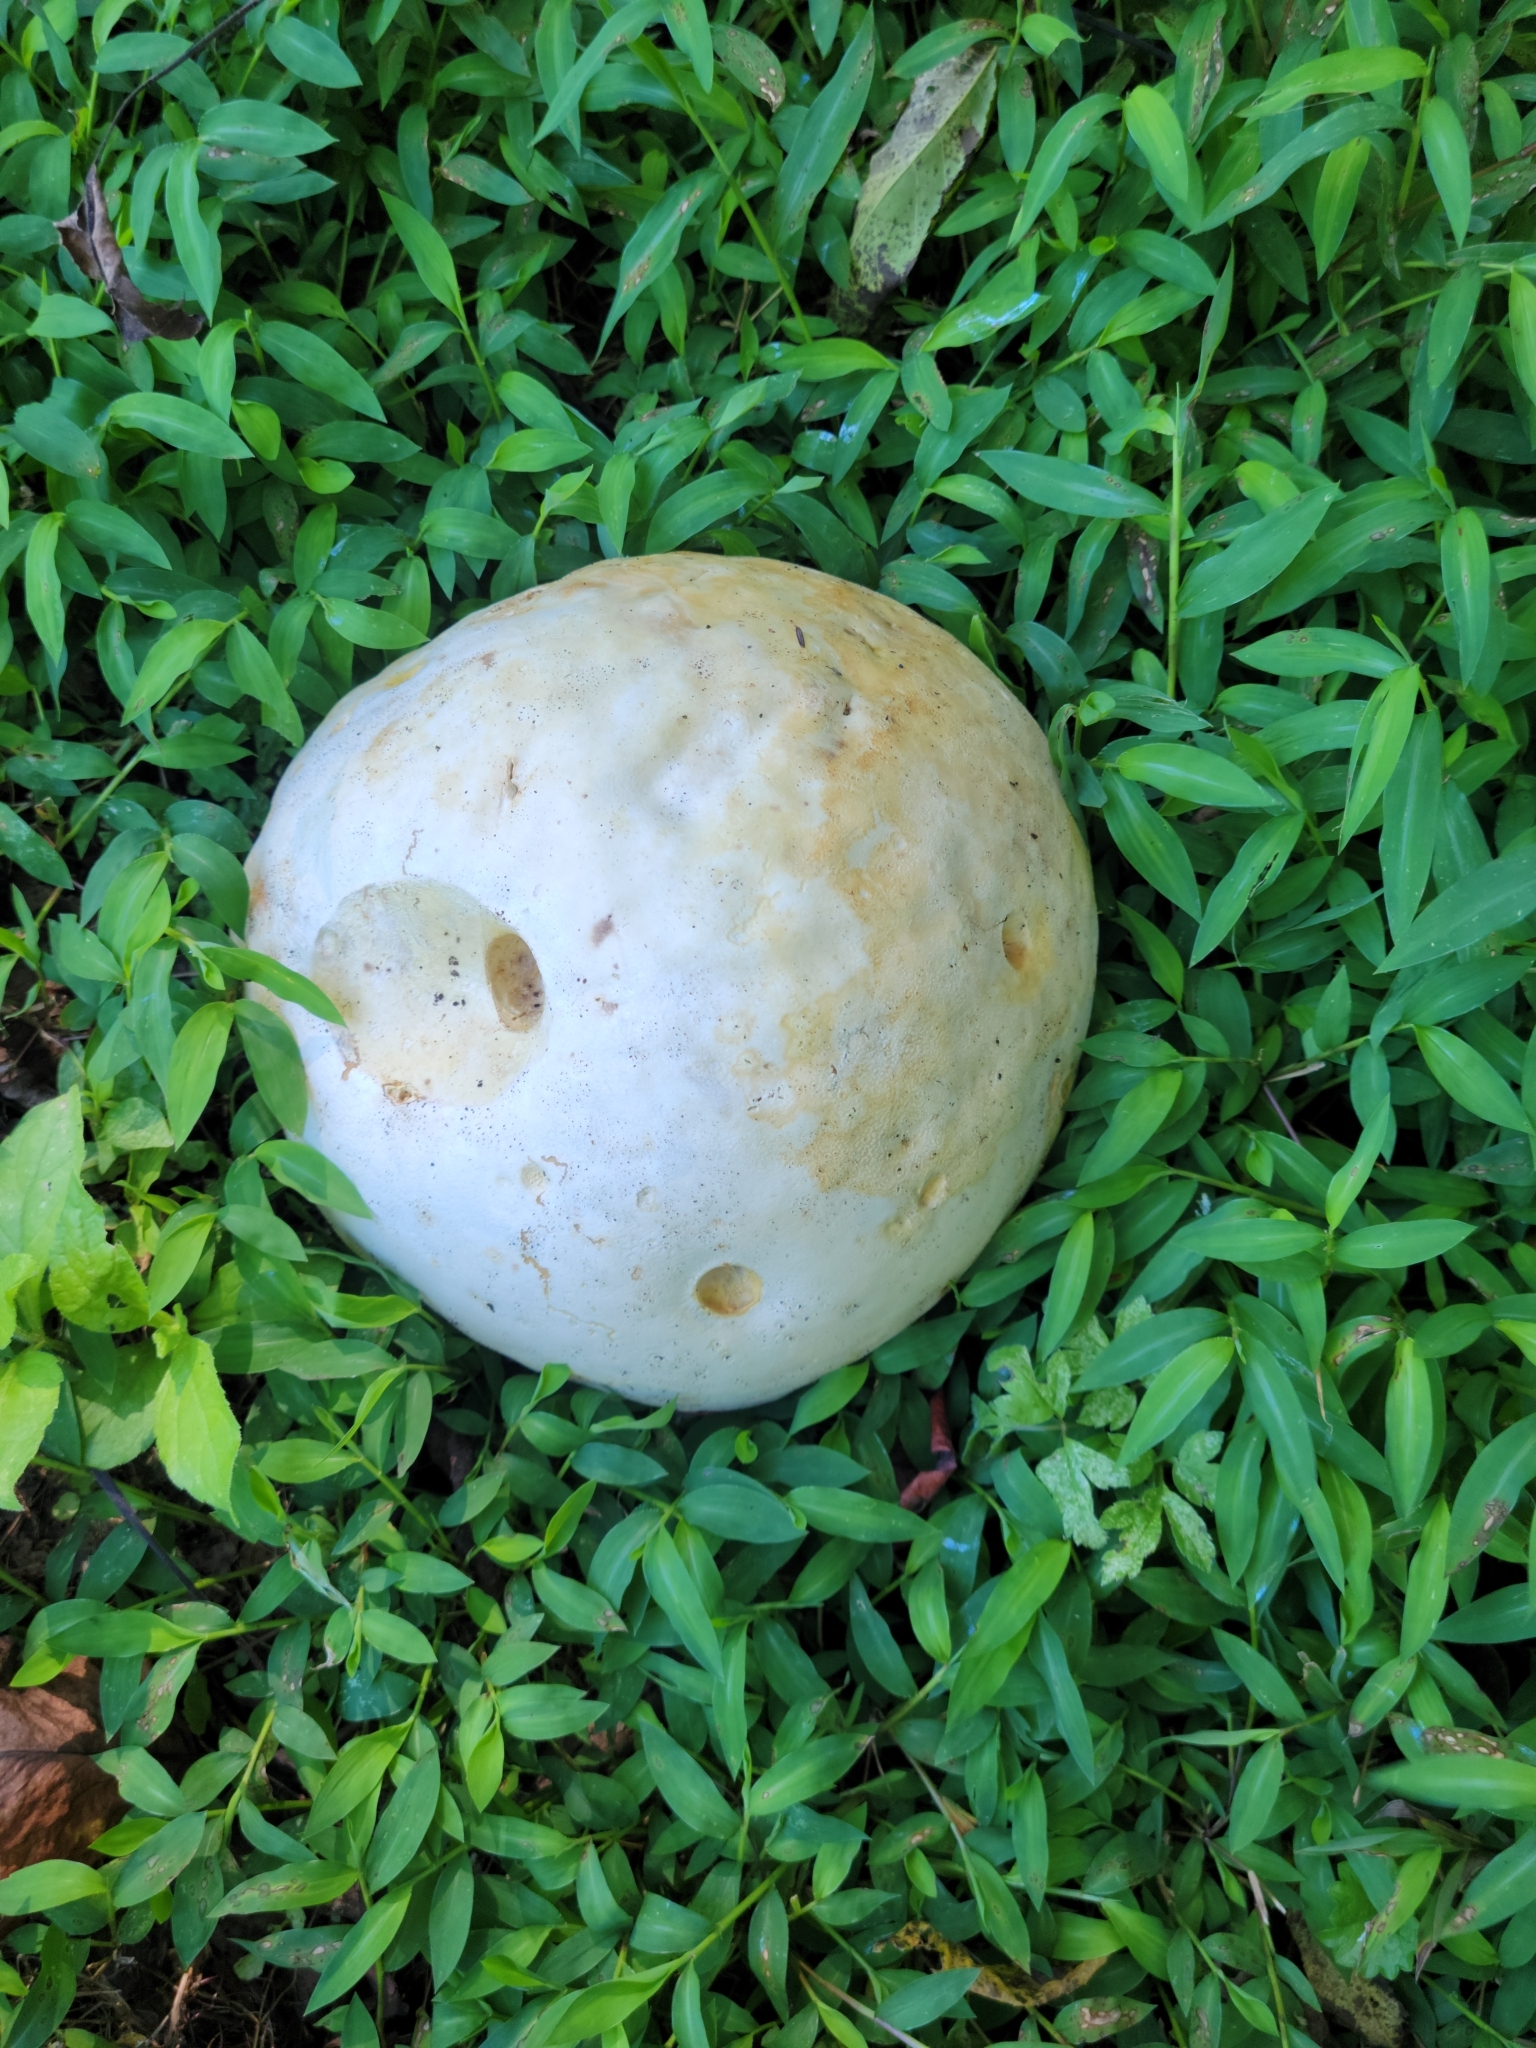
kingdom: Fungi
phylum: Basidiomycota
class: Agaricomycetes
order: Agaricales
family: Lycoperdaceae
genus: Calvatia
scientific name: Calvatia gigantea
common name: Giant puffball
